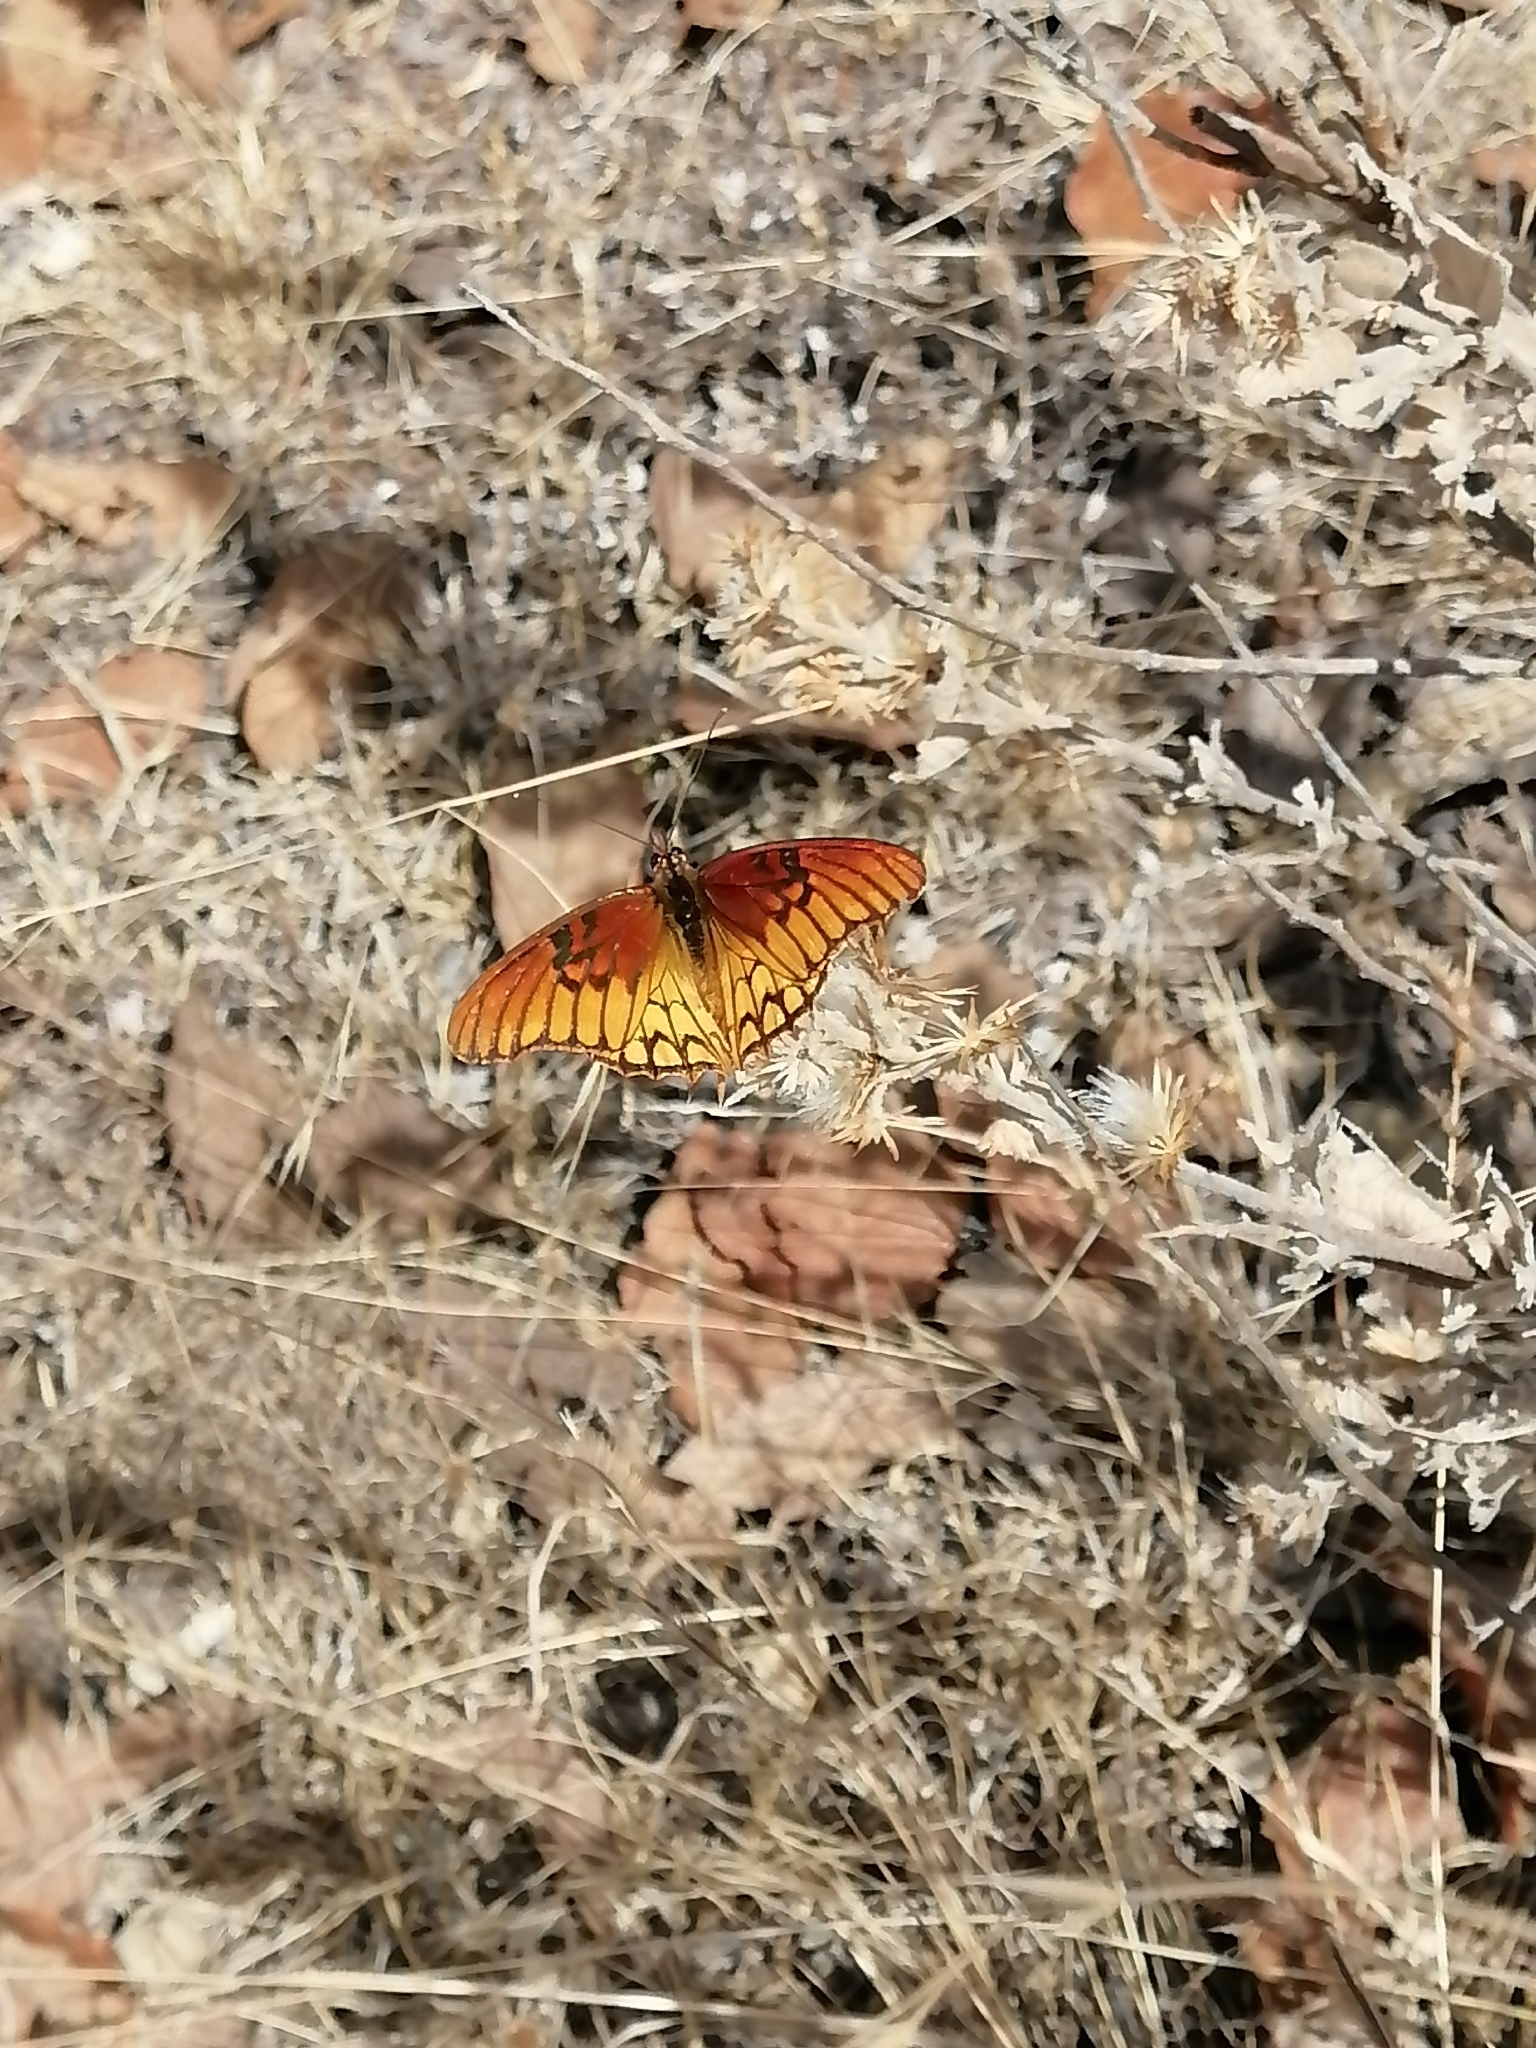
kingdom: Animalia
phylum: Arthropoda
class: Insecta
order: Lepidoptera
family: Nymphalidae
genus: Dione
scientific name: Dione moneta
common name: Mexican silverspot
